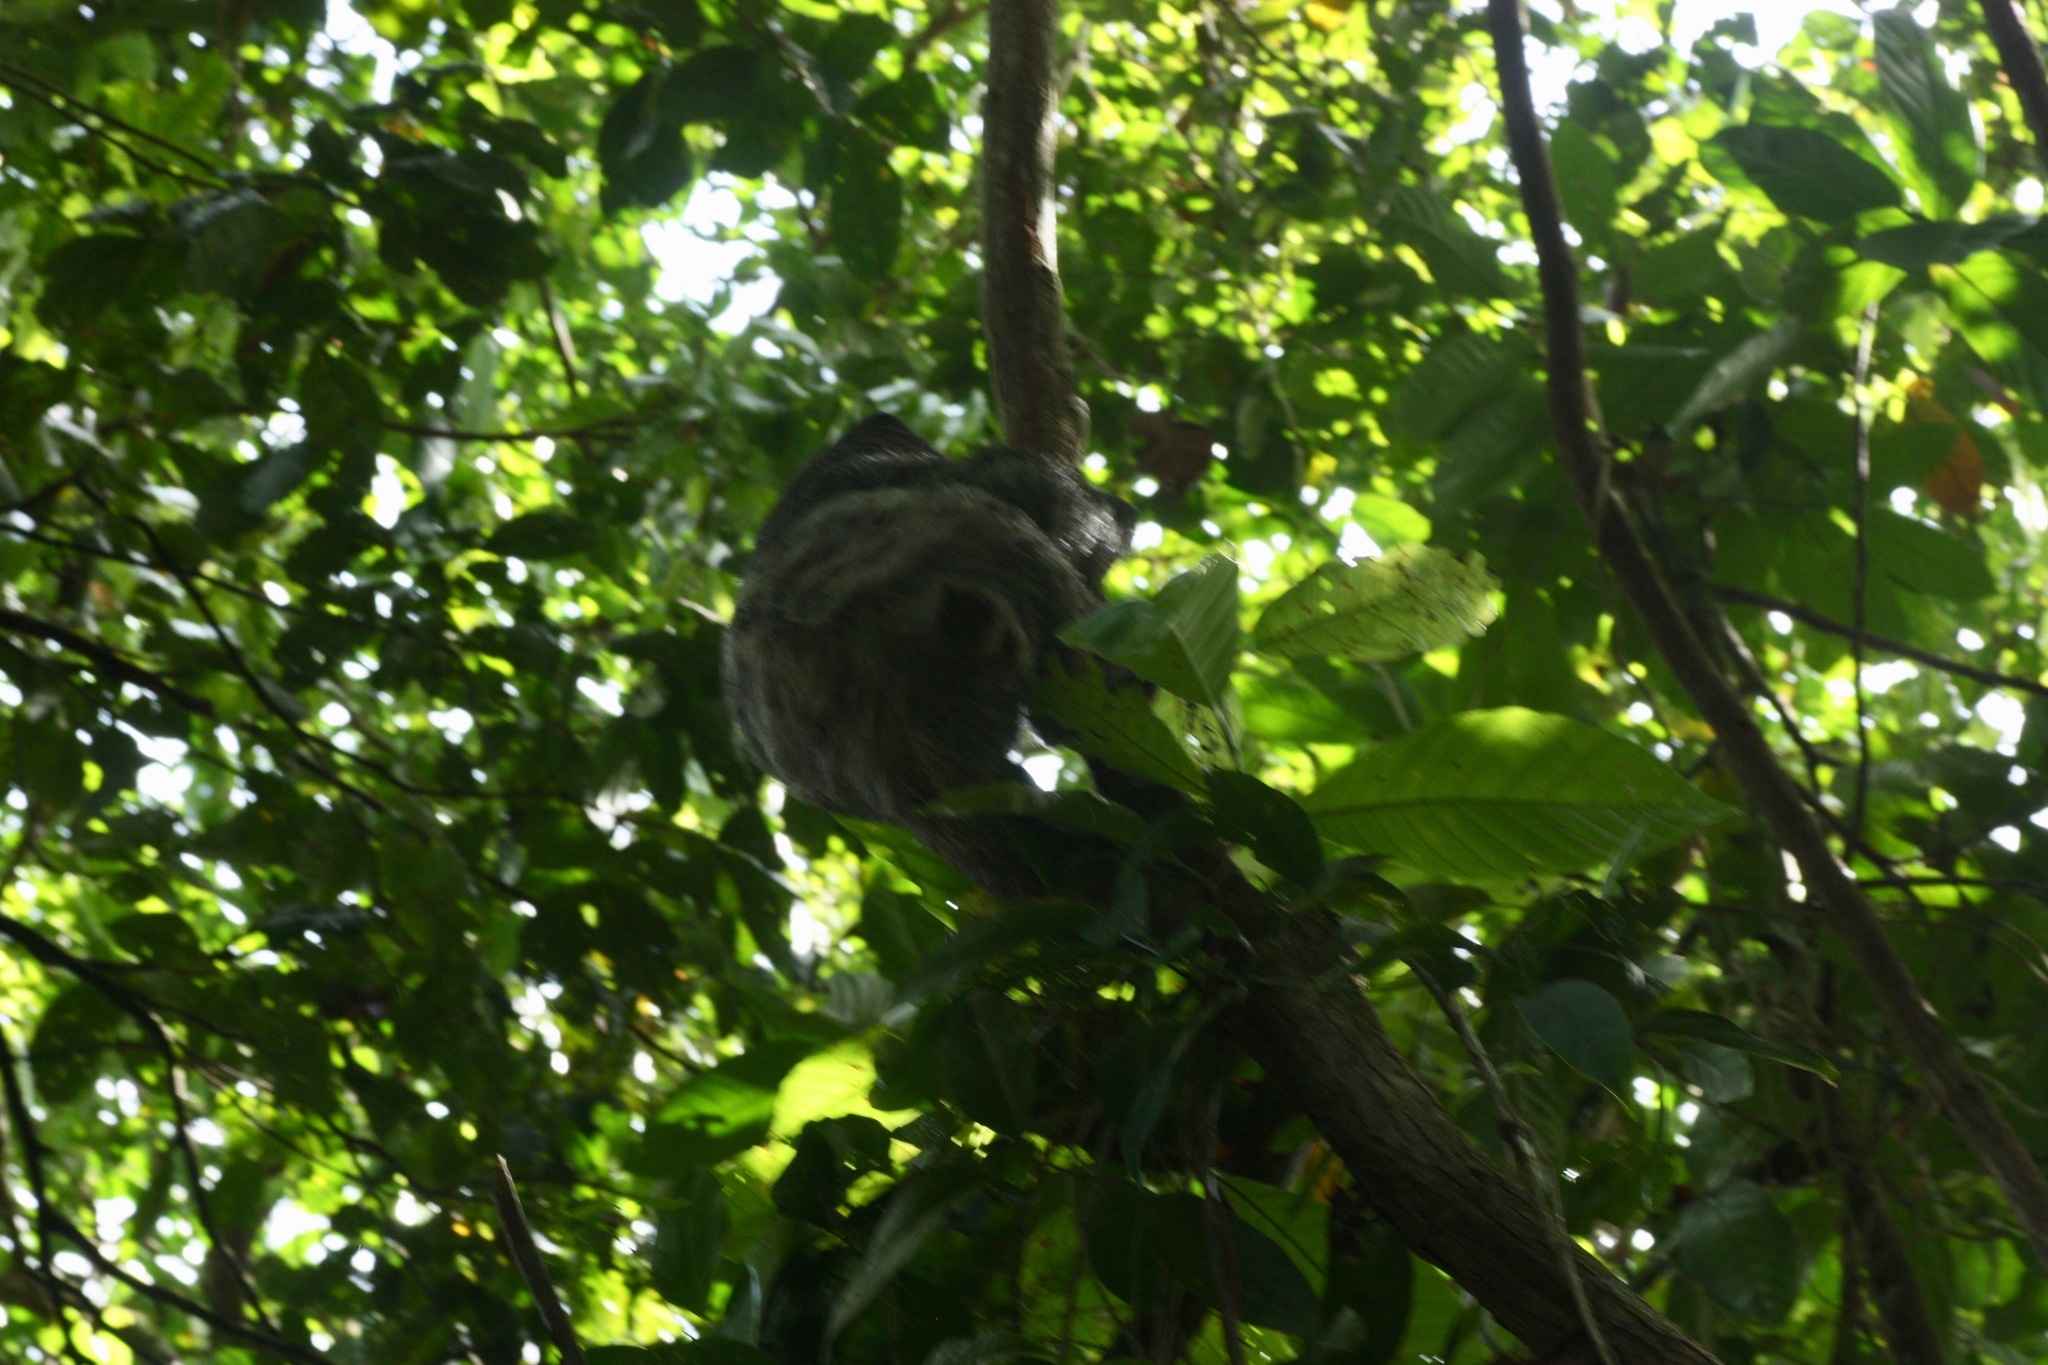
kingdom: Animalia
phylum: Chordata
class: Mammalia
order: Pilosa
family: Bradypodidae
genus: Bradypus
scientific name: Bradypus variegatus
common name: Brown-throated three-toed sloth
